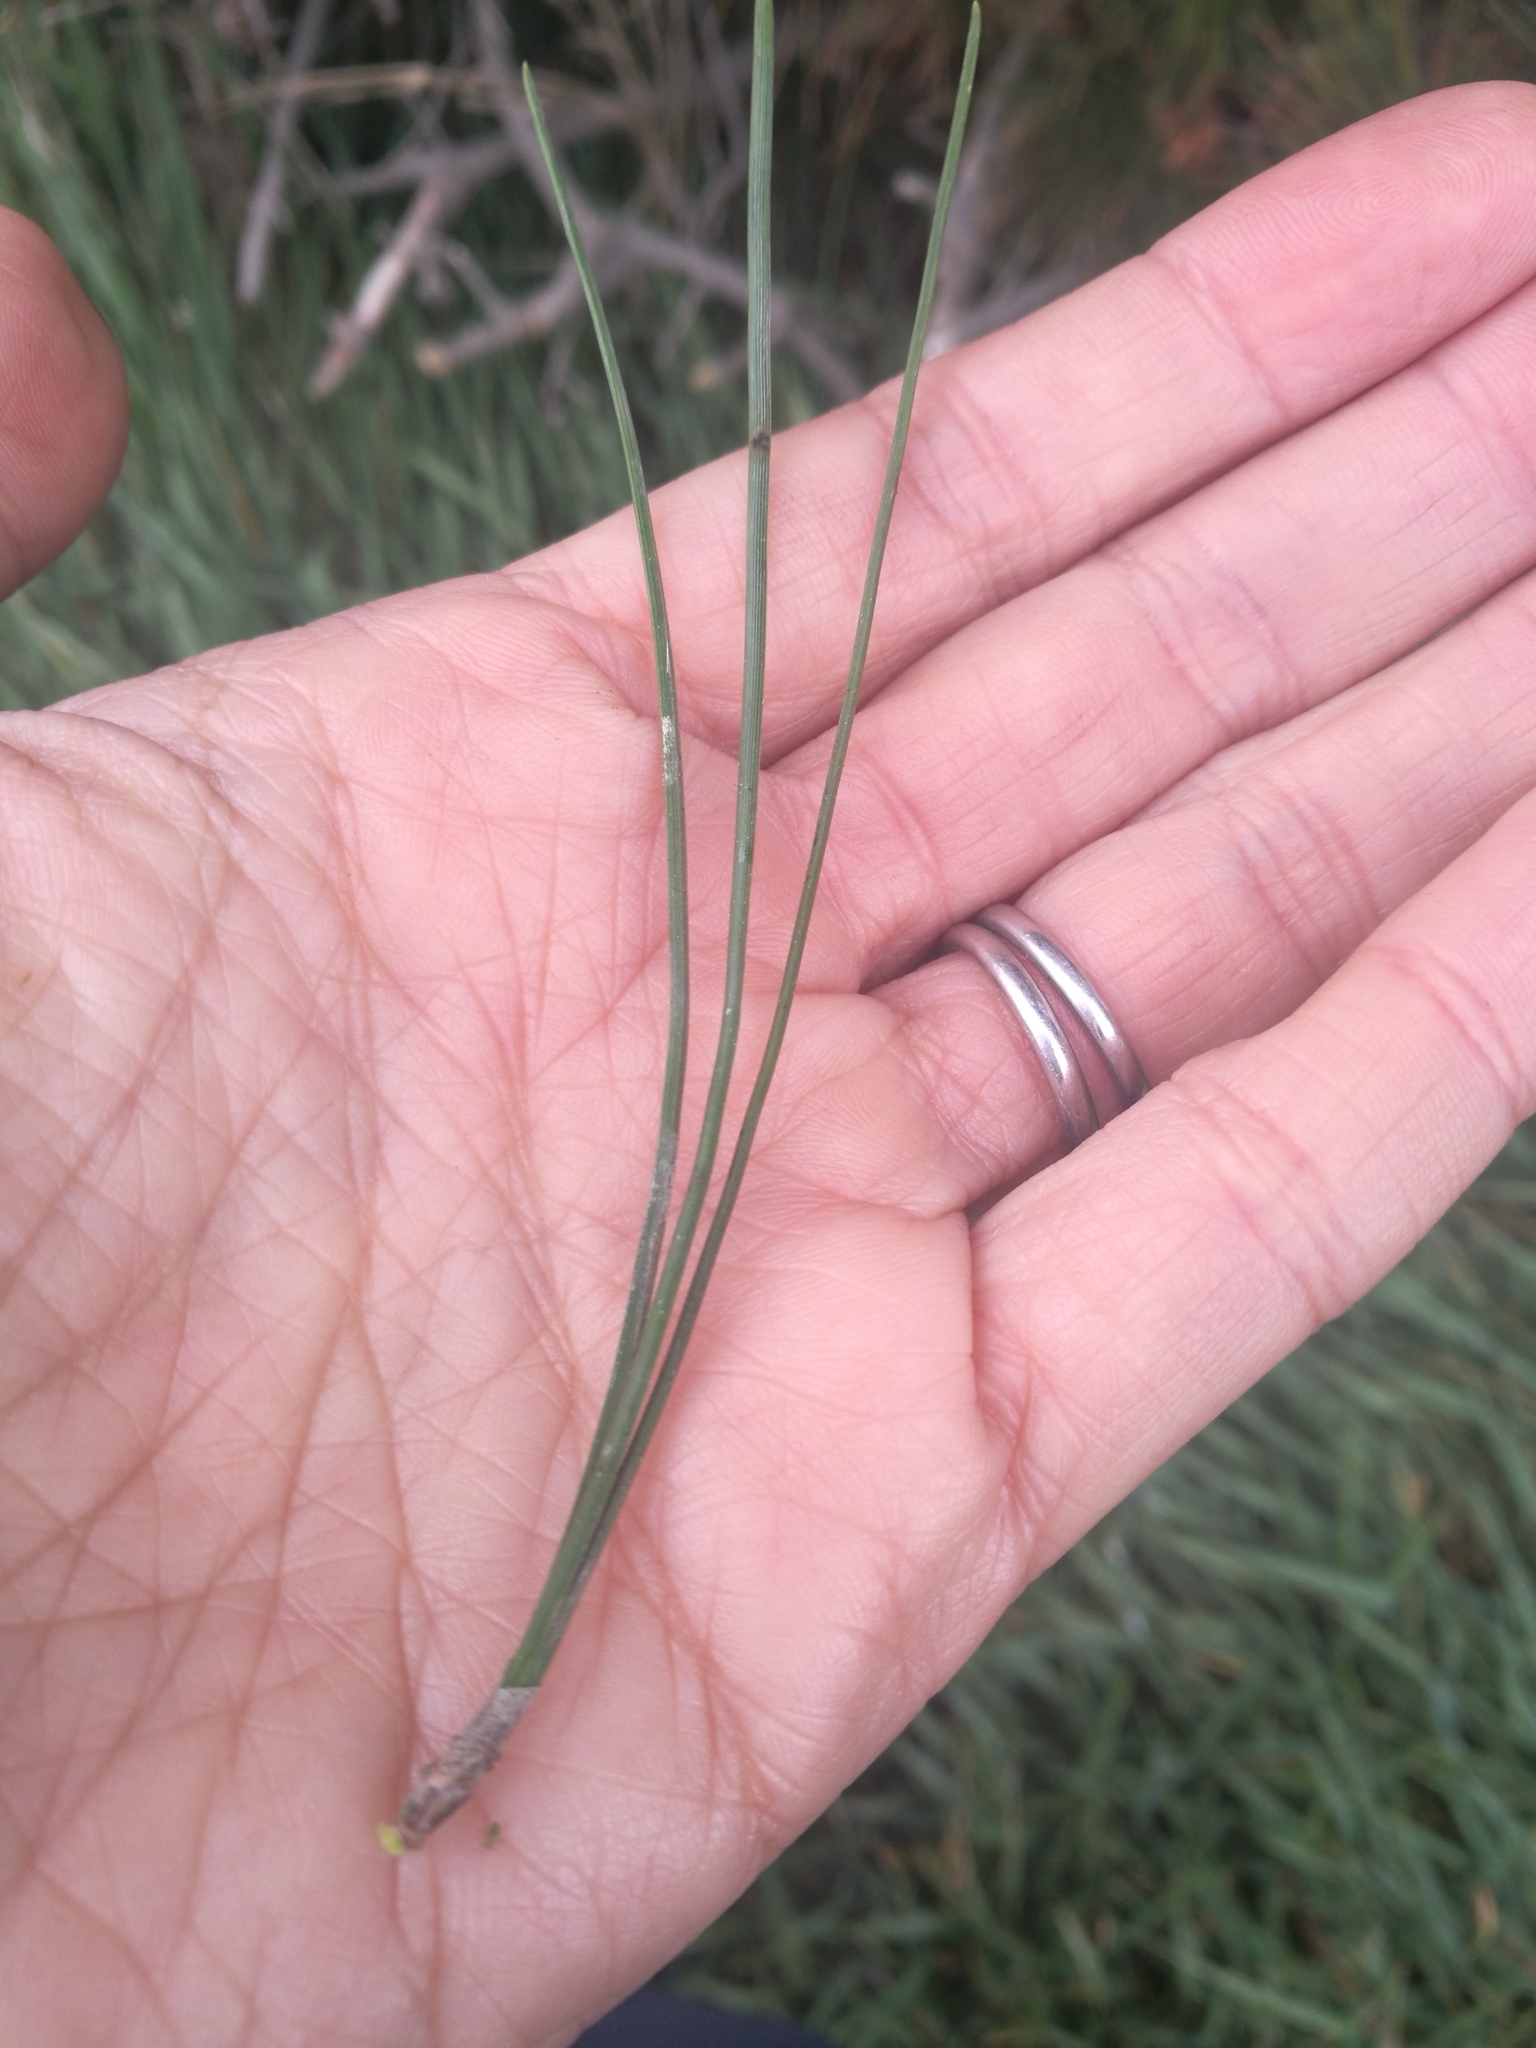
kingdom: Plantae
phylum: Tracheophyta
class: Pinopsida
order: Pinales
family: Pinaceae
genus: Pinus
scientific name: Pinus radiata
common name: Monterey pine
